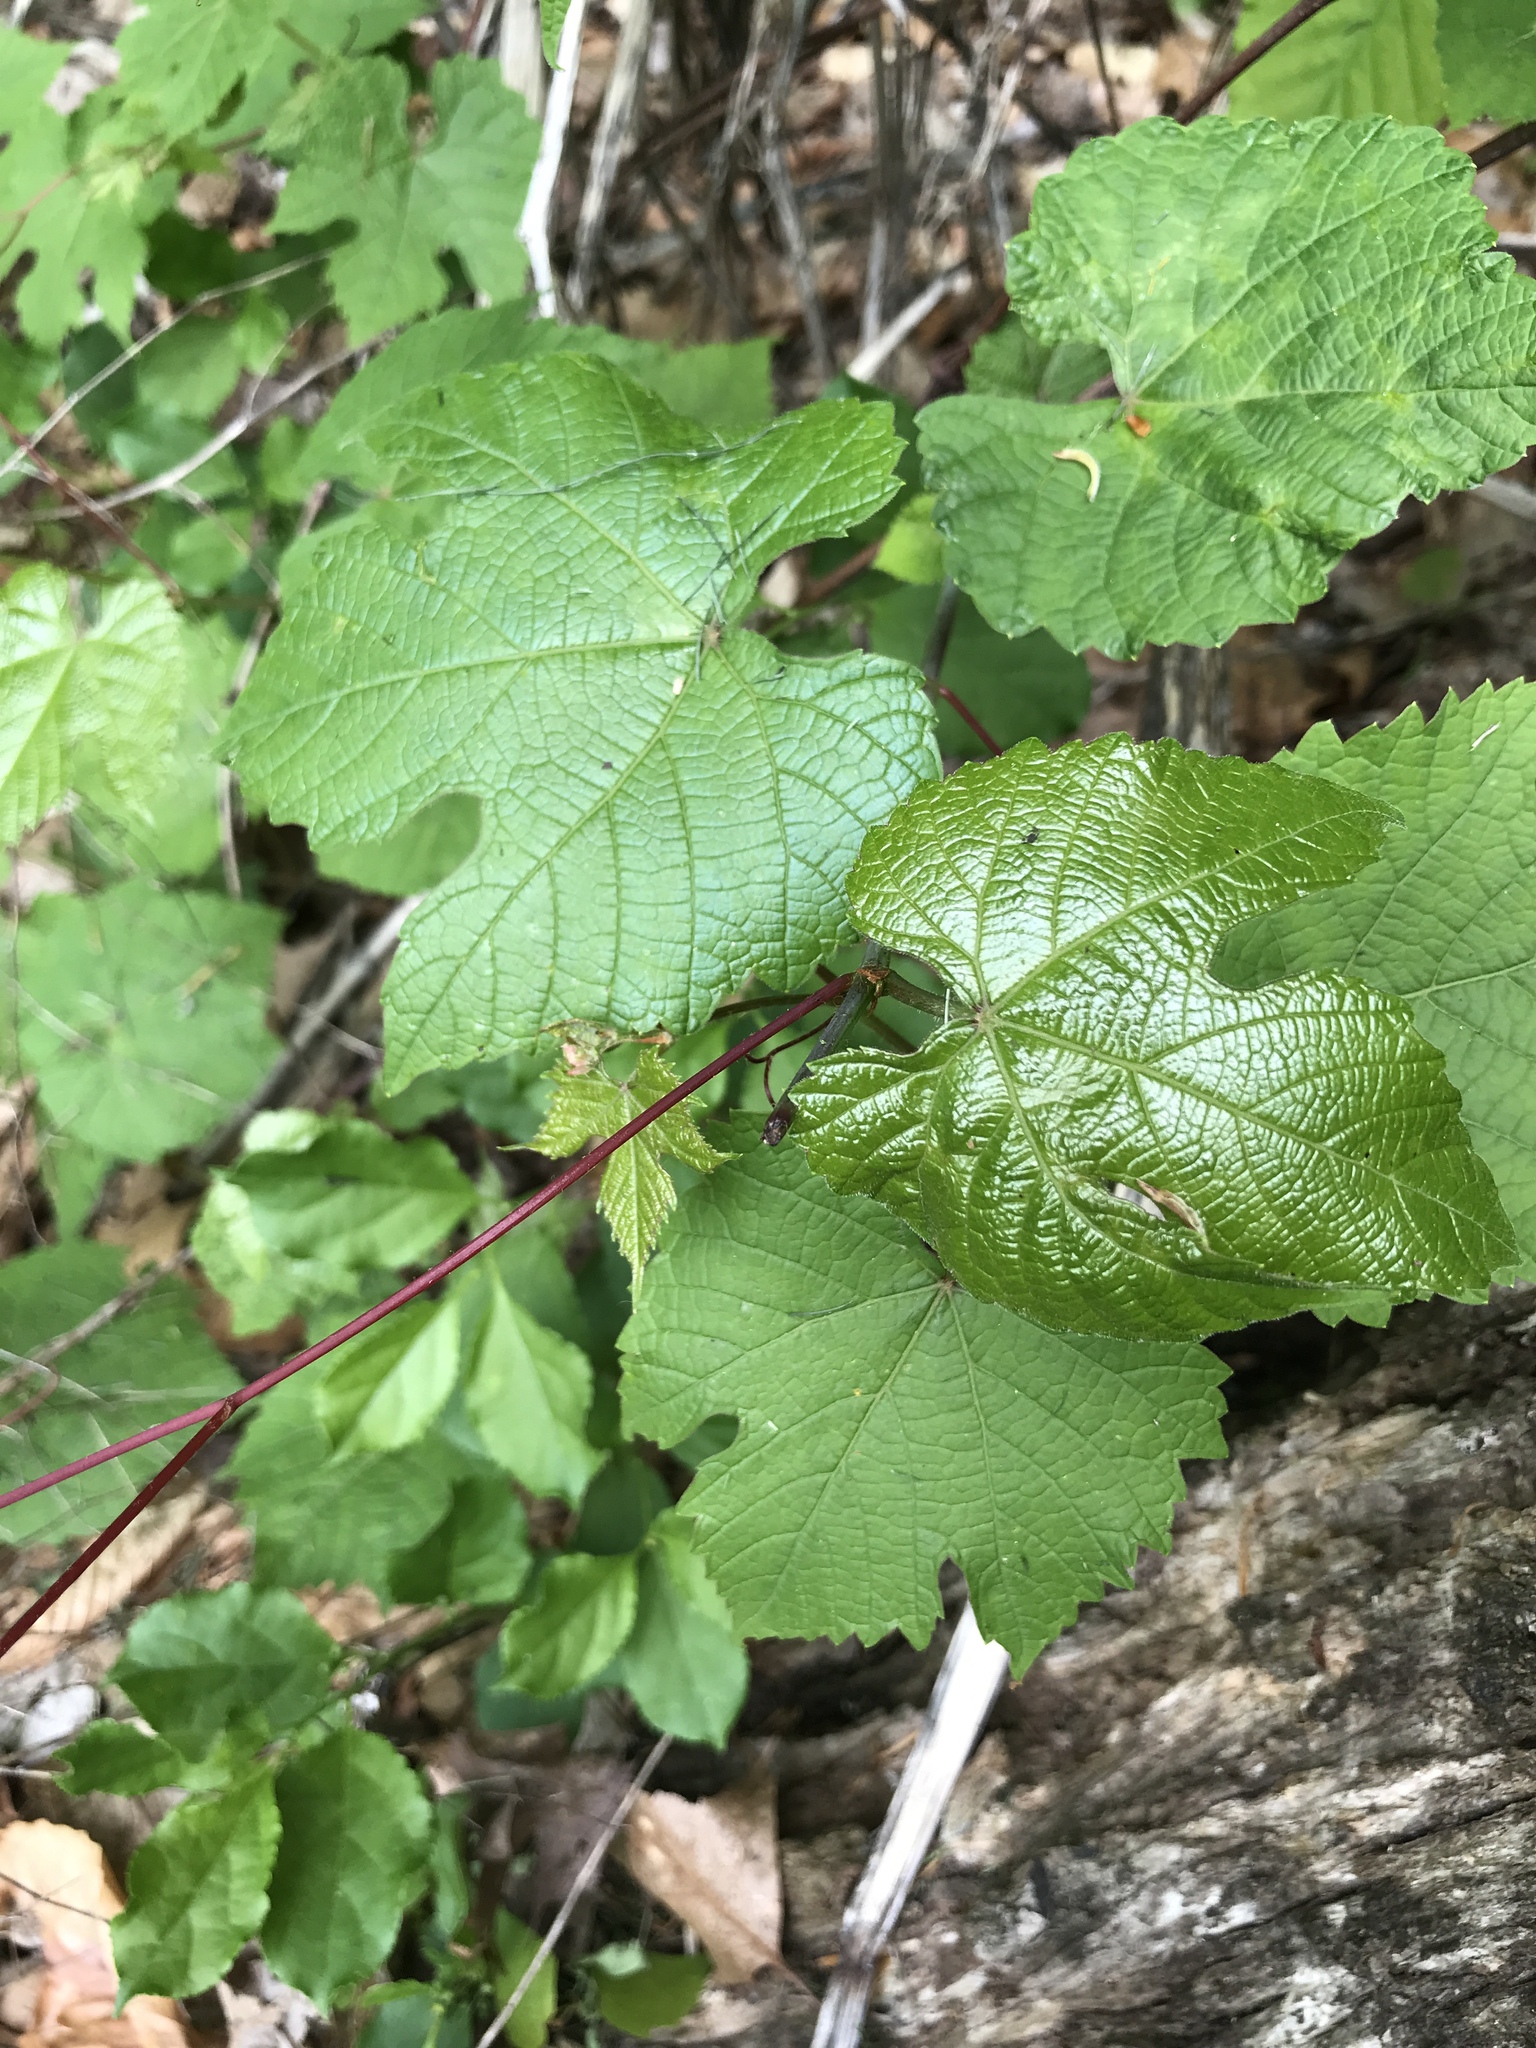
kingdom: Plantae
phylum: Tracheophyta
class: Magnoliopsida
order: Vitales
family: Vitaceae
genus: Vitis
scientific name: Vitis aestivalis
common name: Pigeon grape
